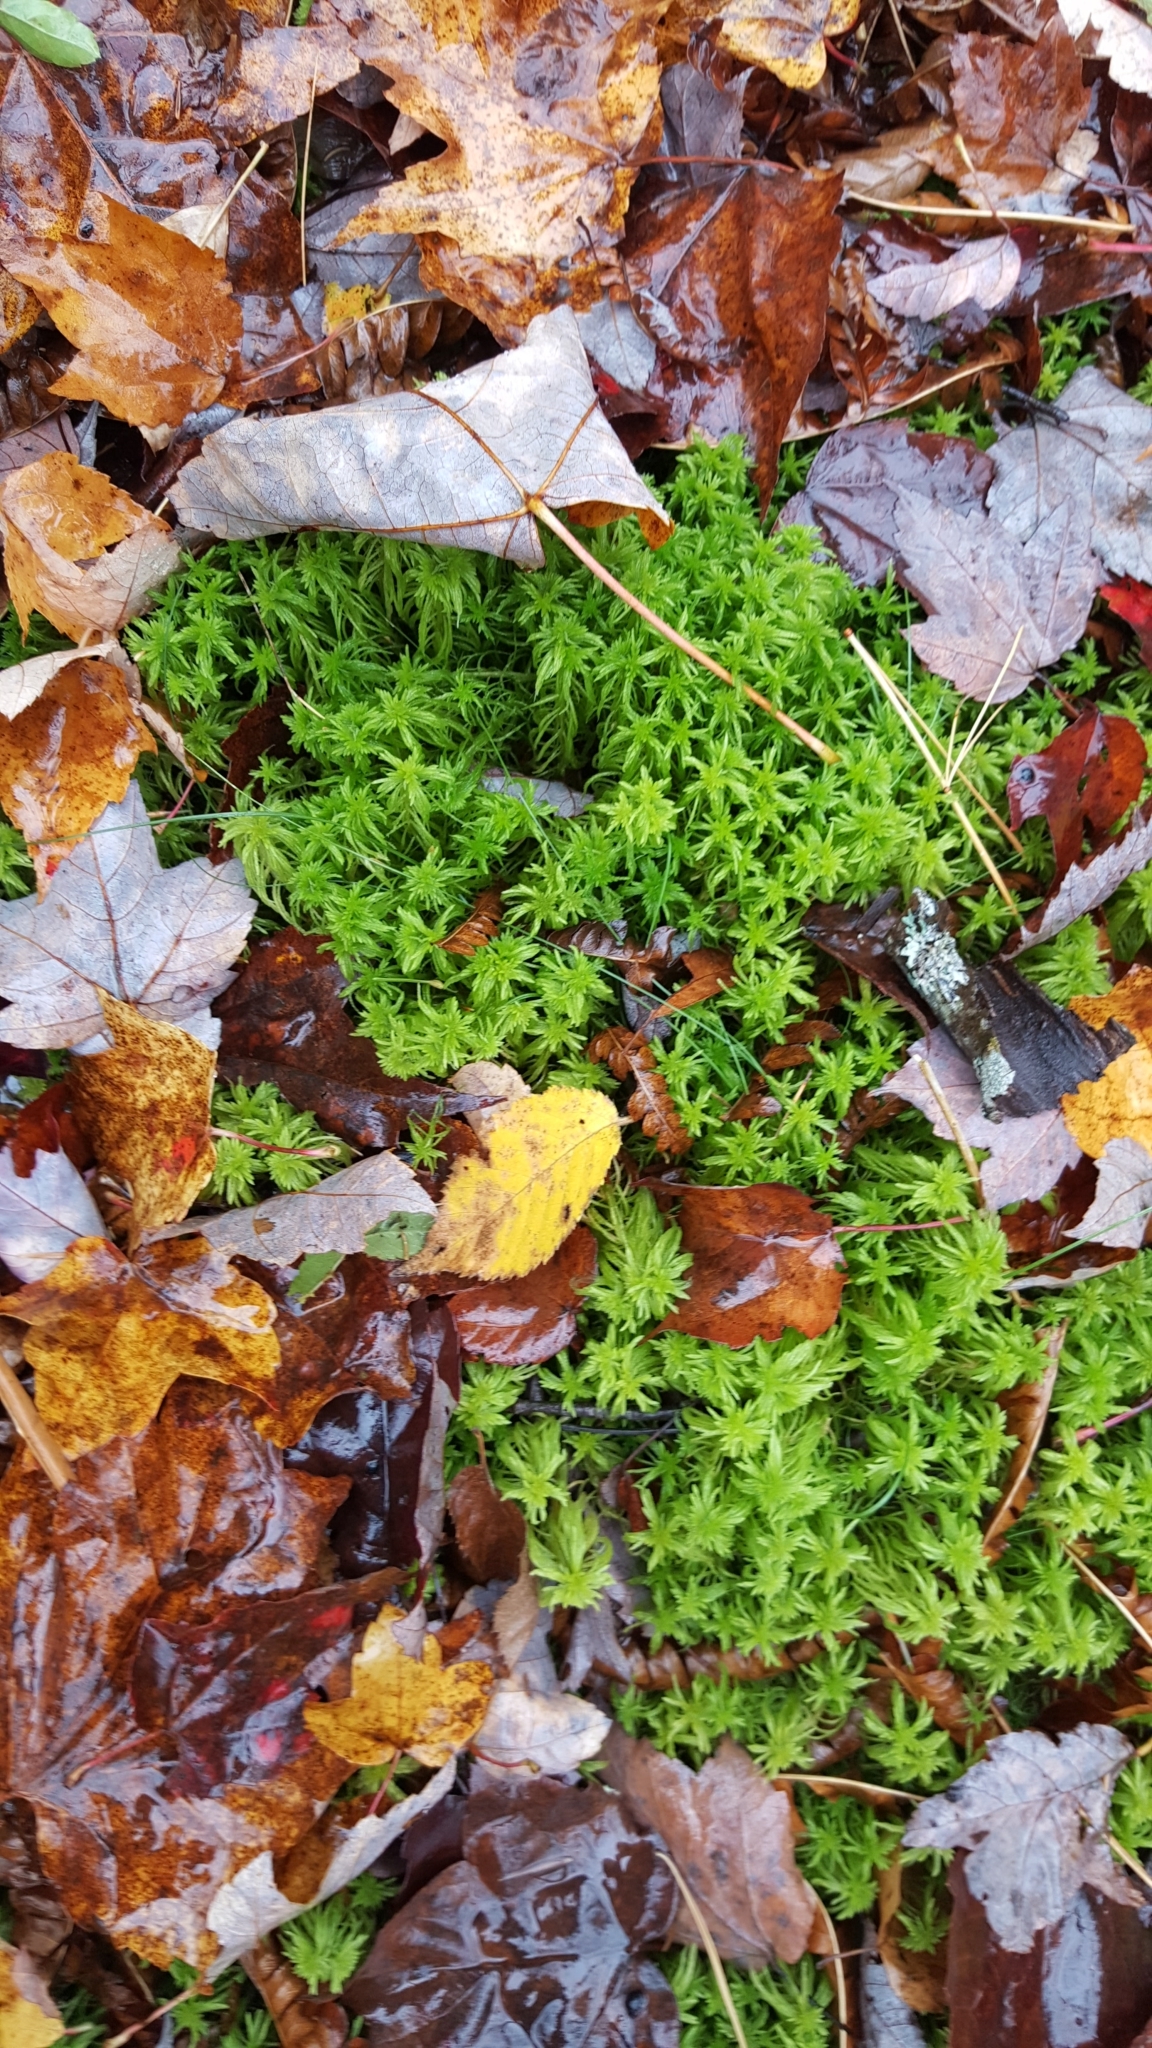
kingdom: Plantae
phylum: Bryophyta
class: Sphagnopsida
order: Sphagnales
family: Sphagnaceae
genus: Sphagnum
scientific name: Sphagnum girgensohnii
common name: Girgensohn's peat moss
